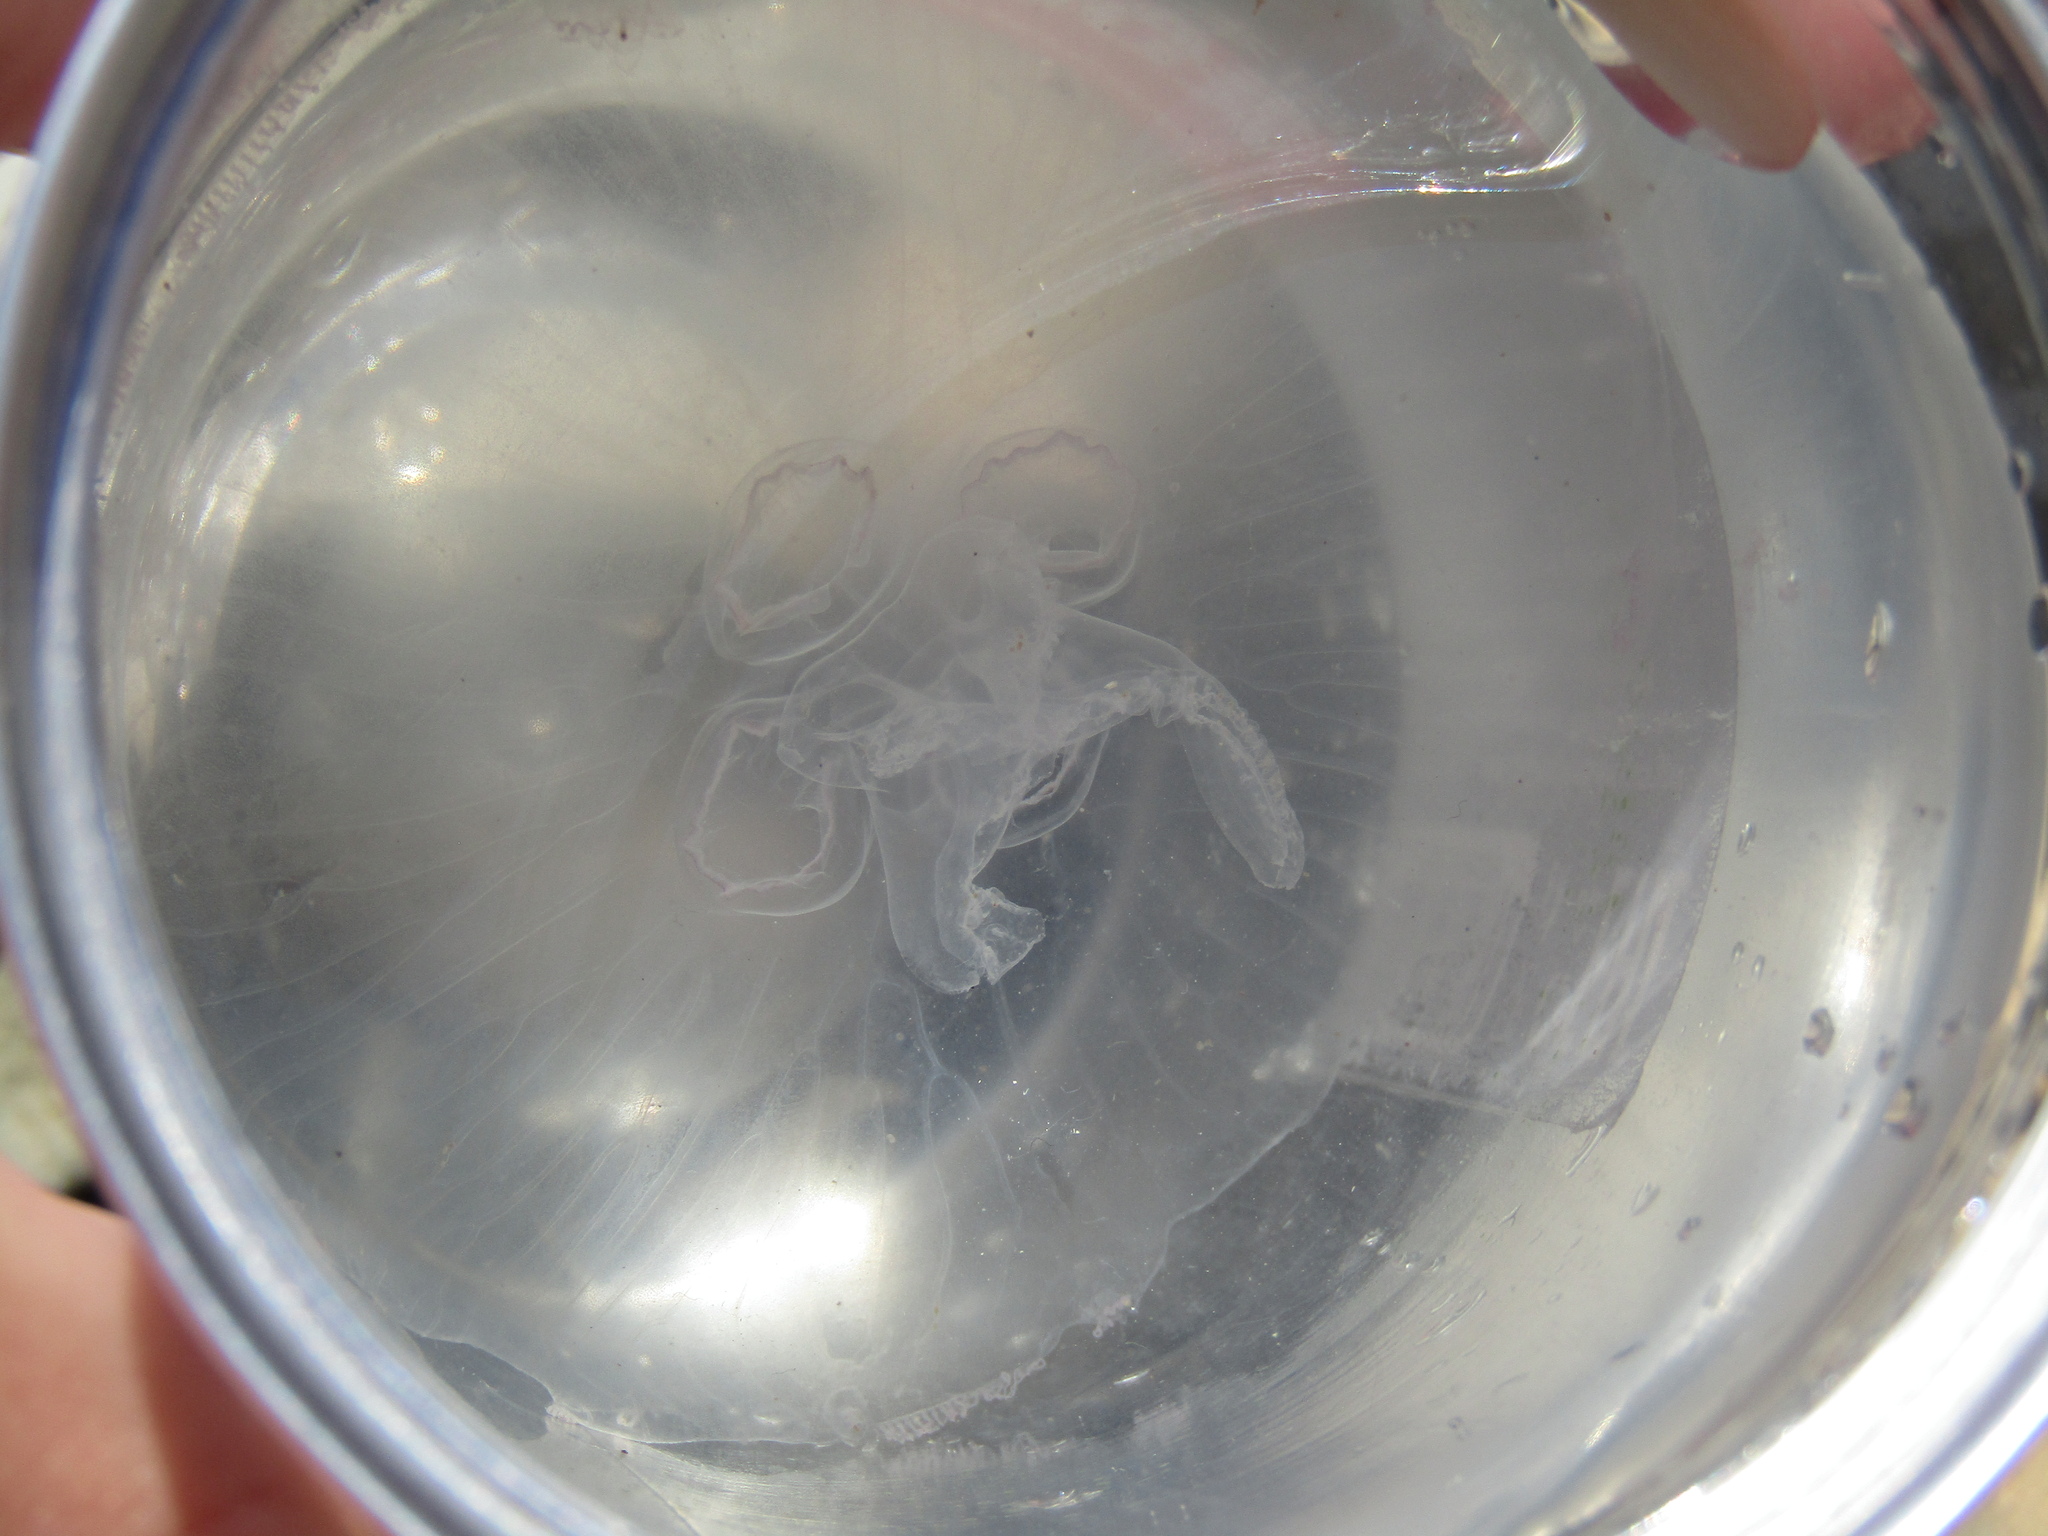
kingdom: Animalia
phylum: Cnidaria
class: Scyphozoa
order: Semaeostomeae
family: Ulmaridae
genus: Aurelia
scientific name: Aurelia aurita
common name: Moon jellyfish
